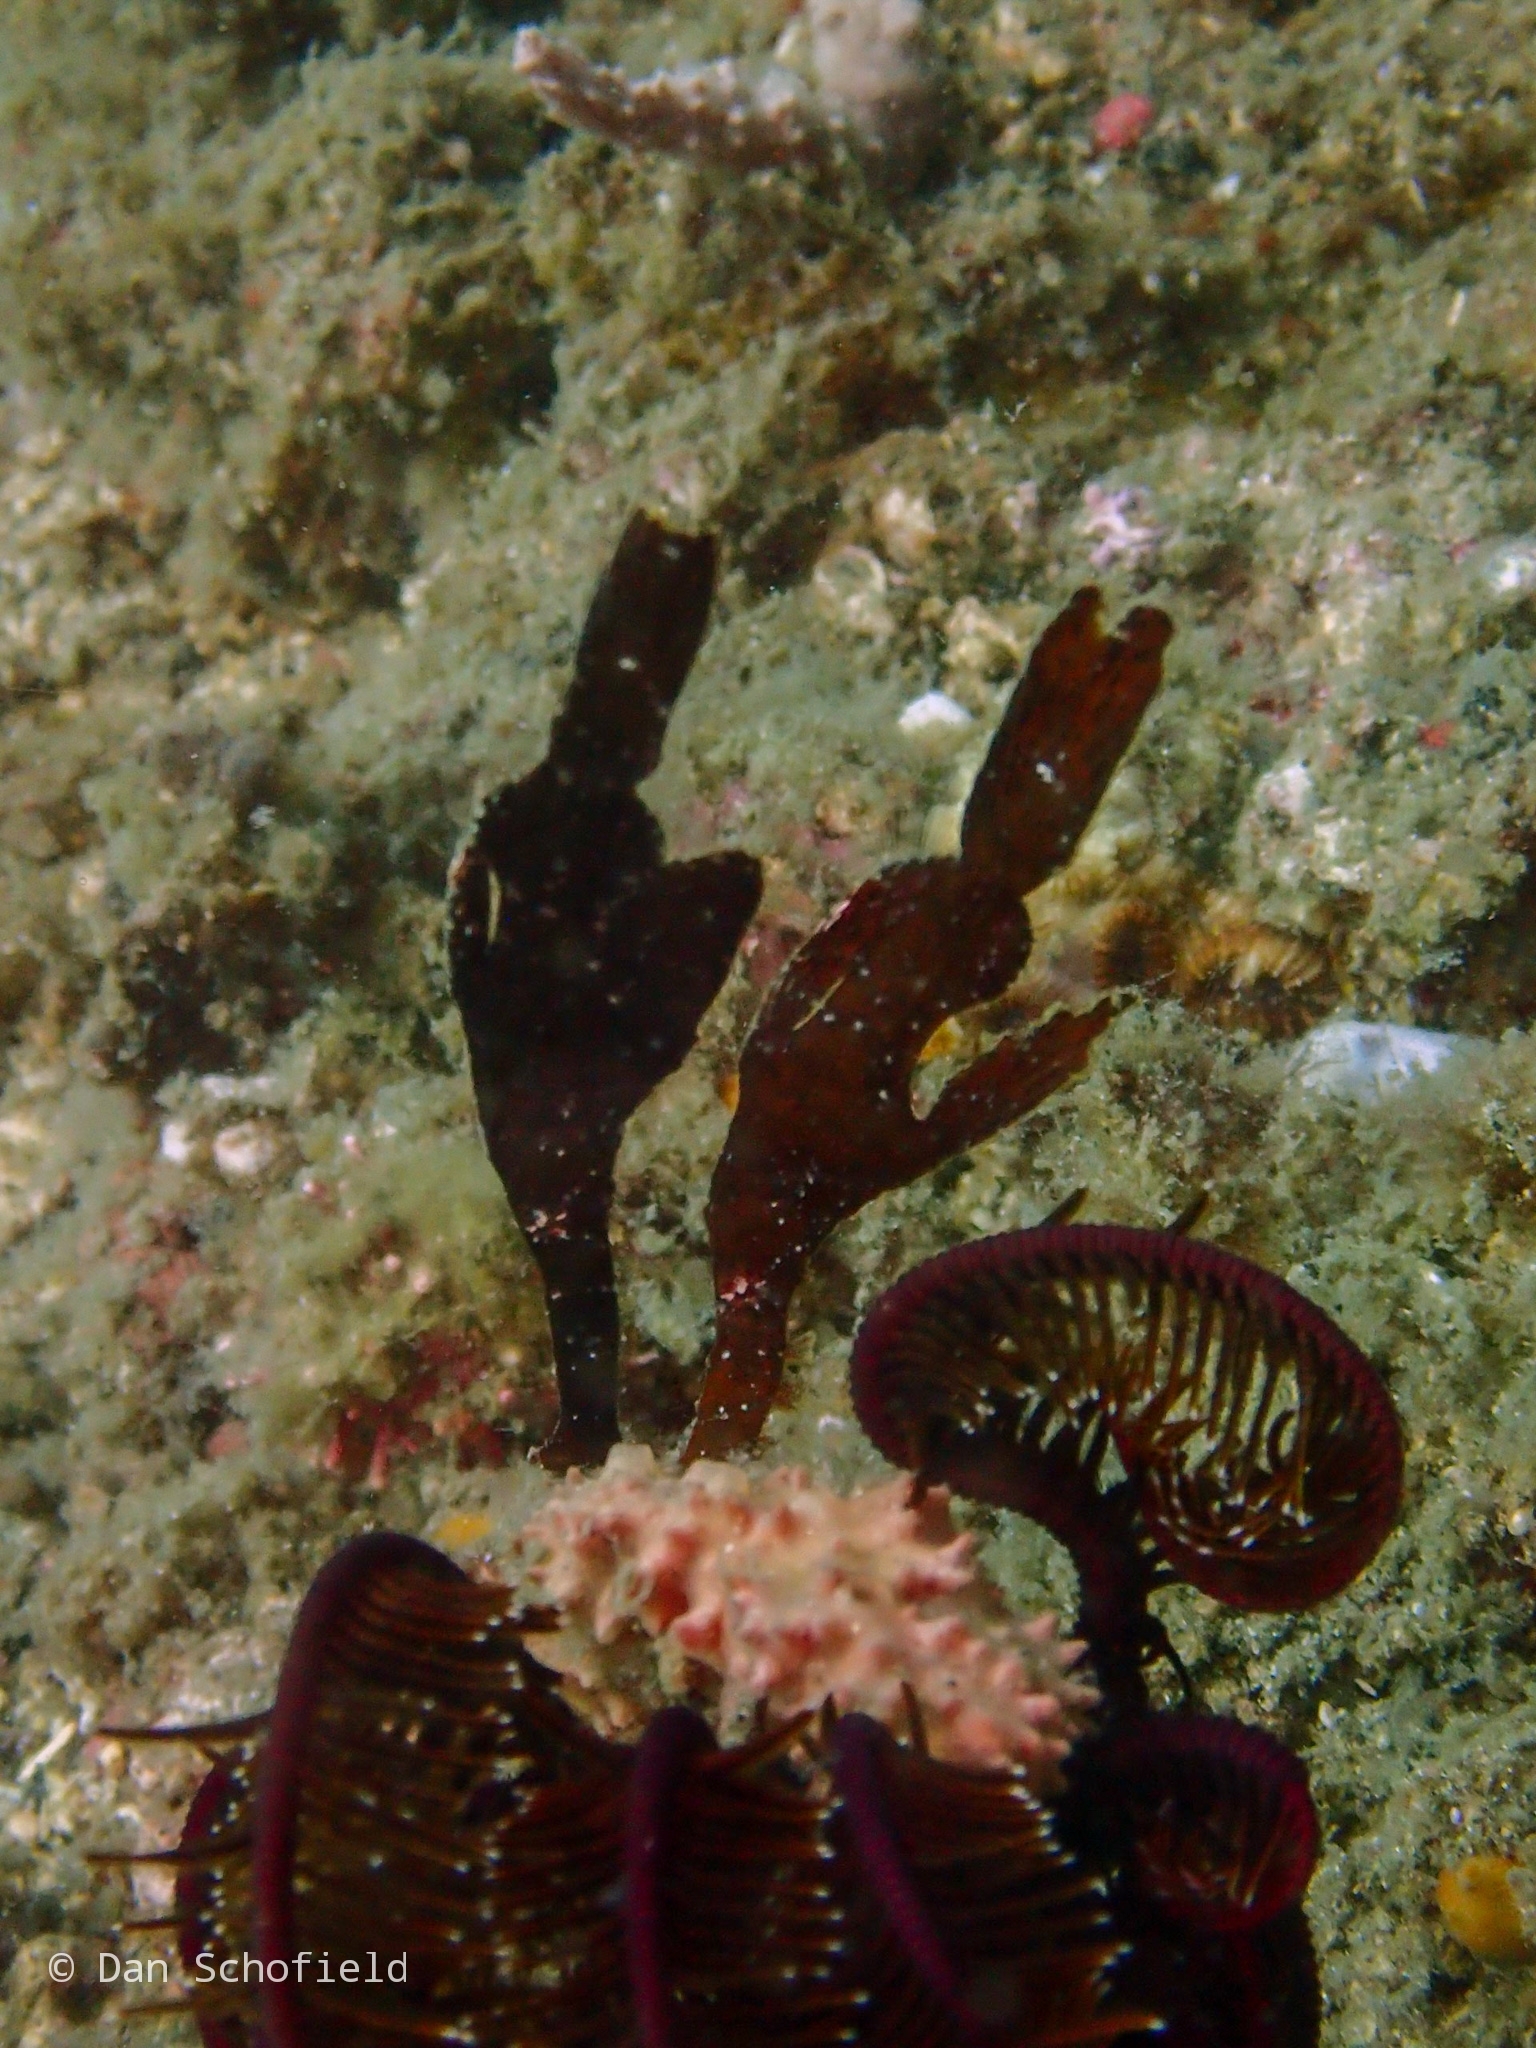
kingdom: Animalia
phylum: Chordata
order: Syngnathiformes
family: Solenostomidae
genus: Solenostomus
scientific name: Solenostomus cyanopterus
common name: Blue-finned ghost pipefish
